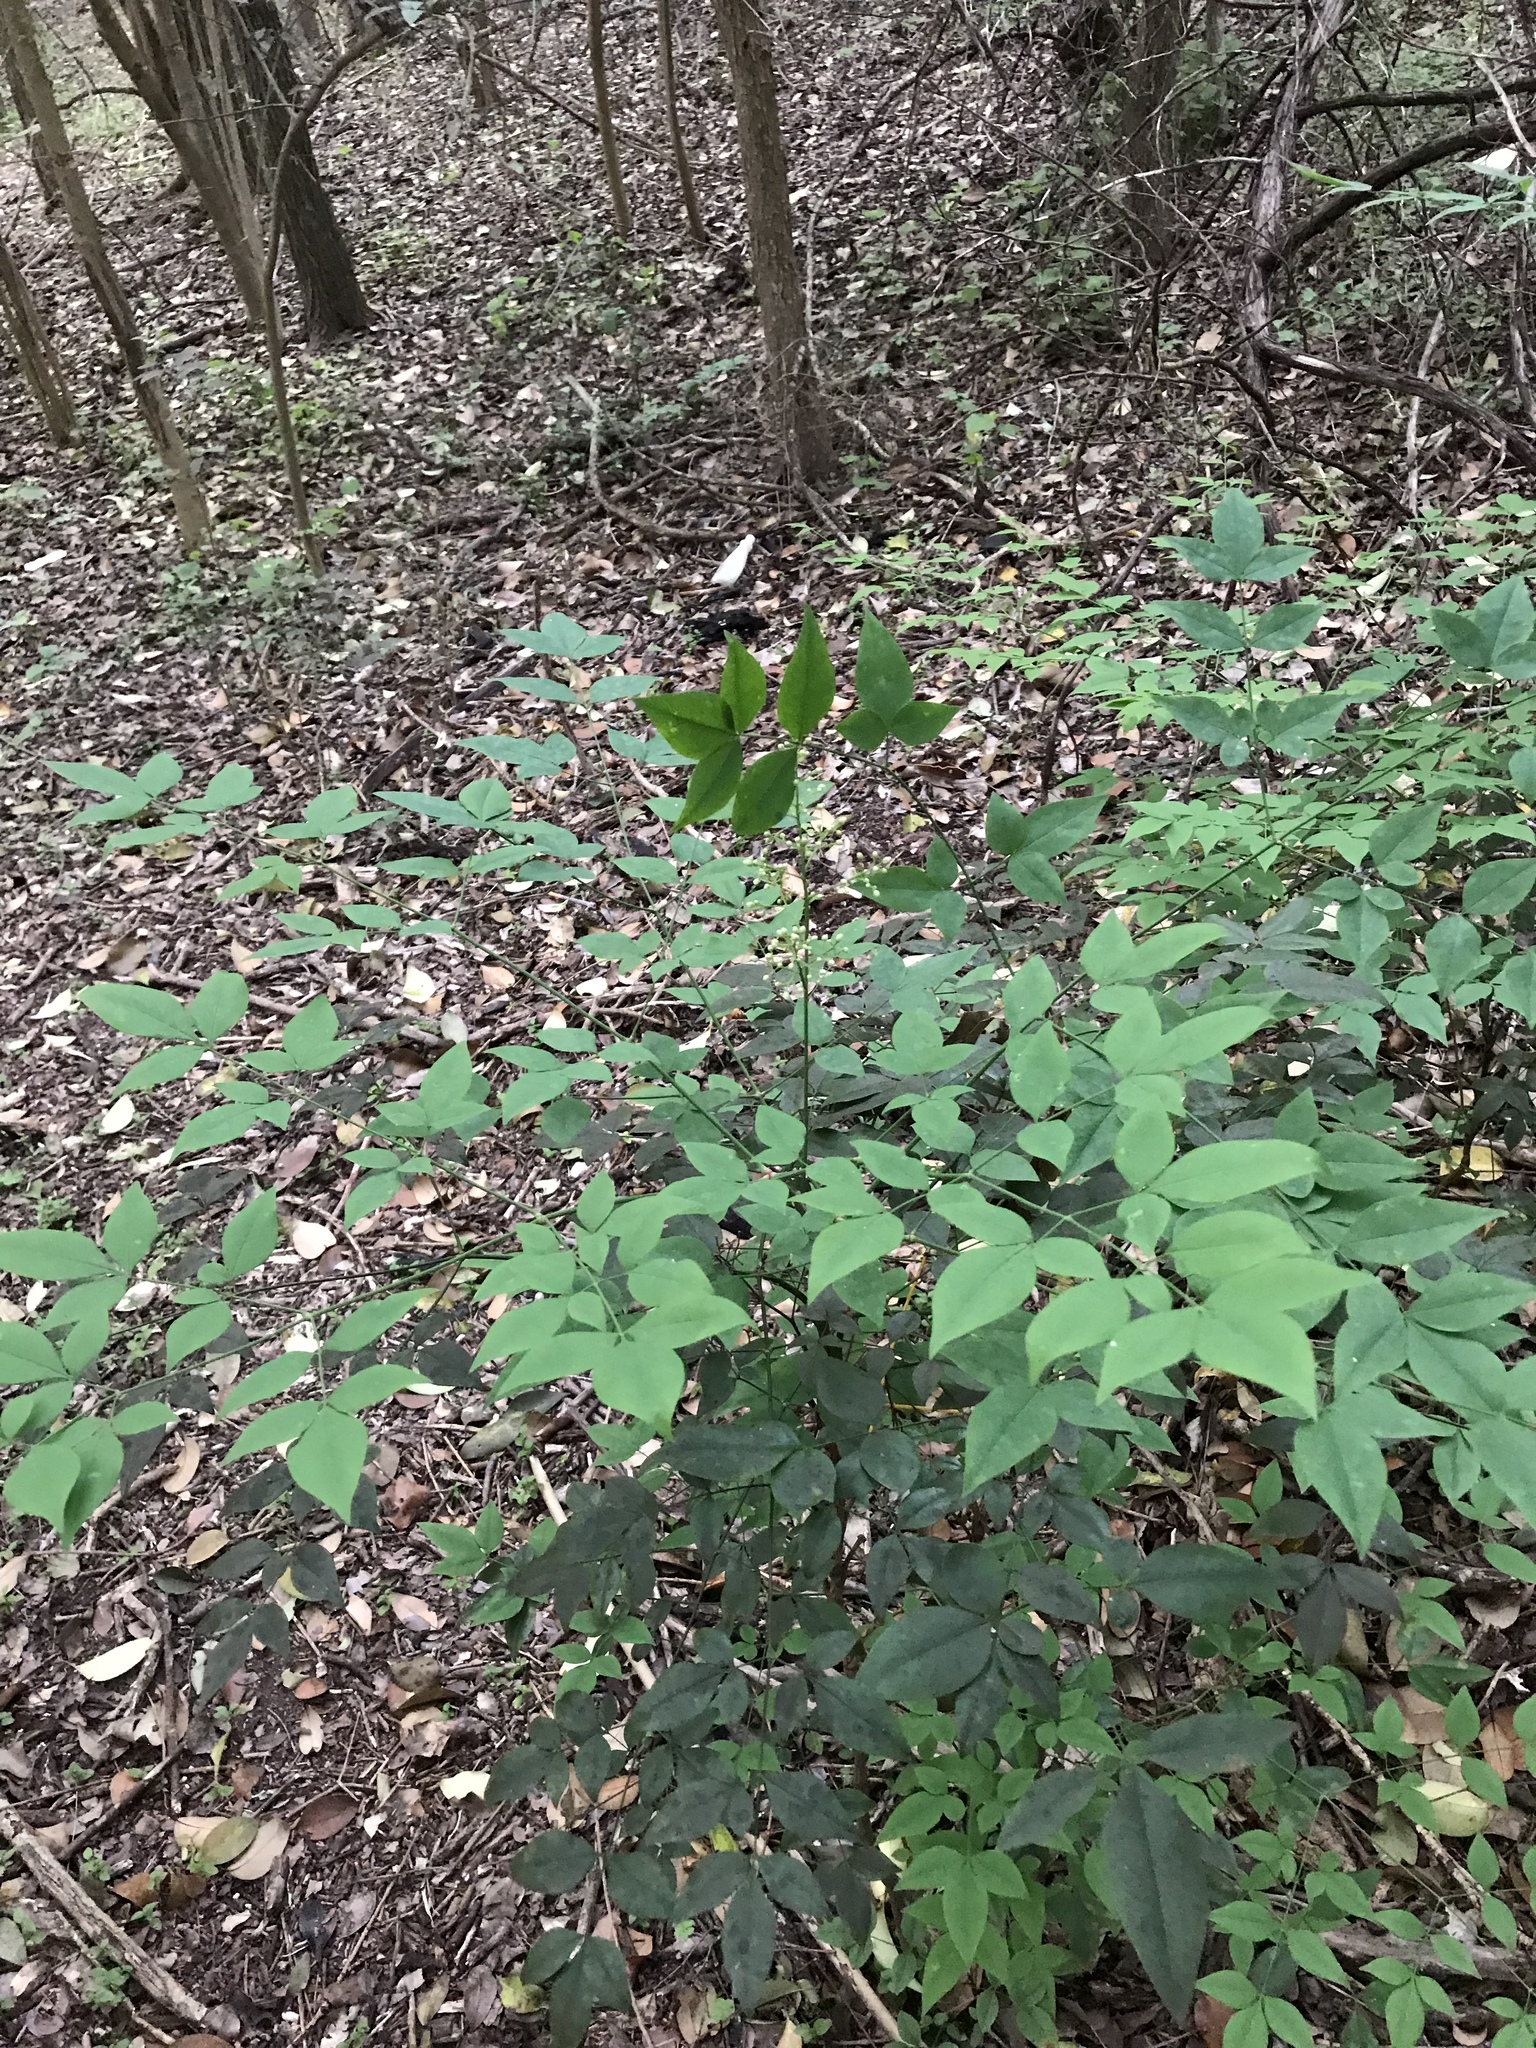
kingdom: Plantae
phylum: Tracheophyta
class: Magnoliopsida
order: Ranunculales
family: Berberidaceae
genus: Nandina
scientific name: Nandina domestica
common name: Sacred bamboo
